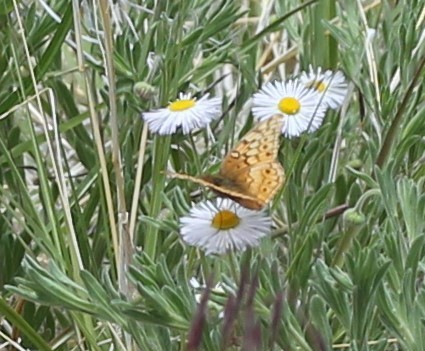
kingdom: Animalia
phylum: Arthropoda
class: Insecta
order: Lepidoptera
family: Nymphalidae
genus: Euptoieta
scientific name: Euptoieta claudia
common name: Variegated fritillary
